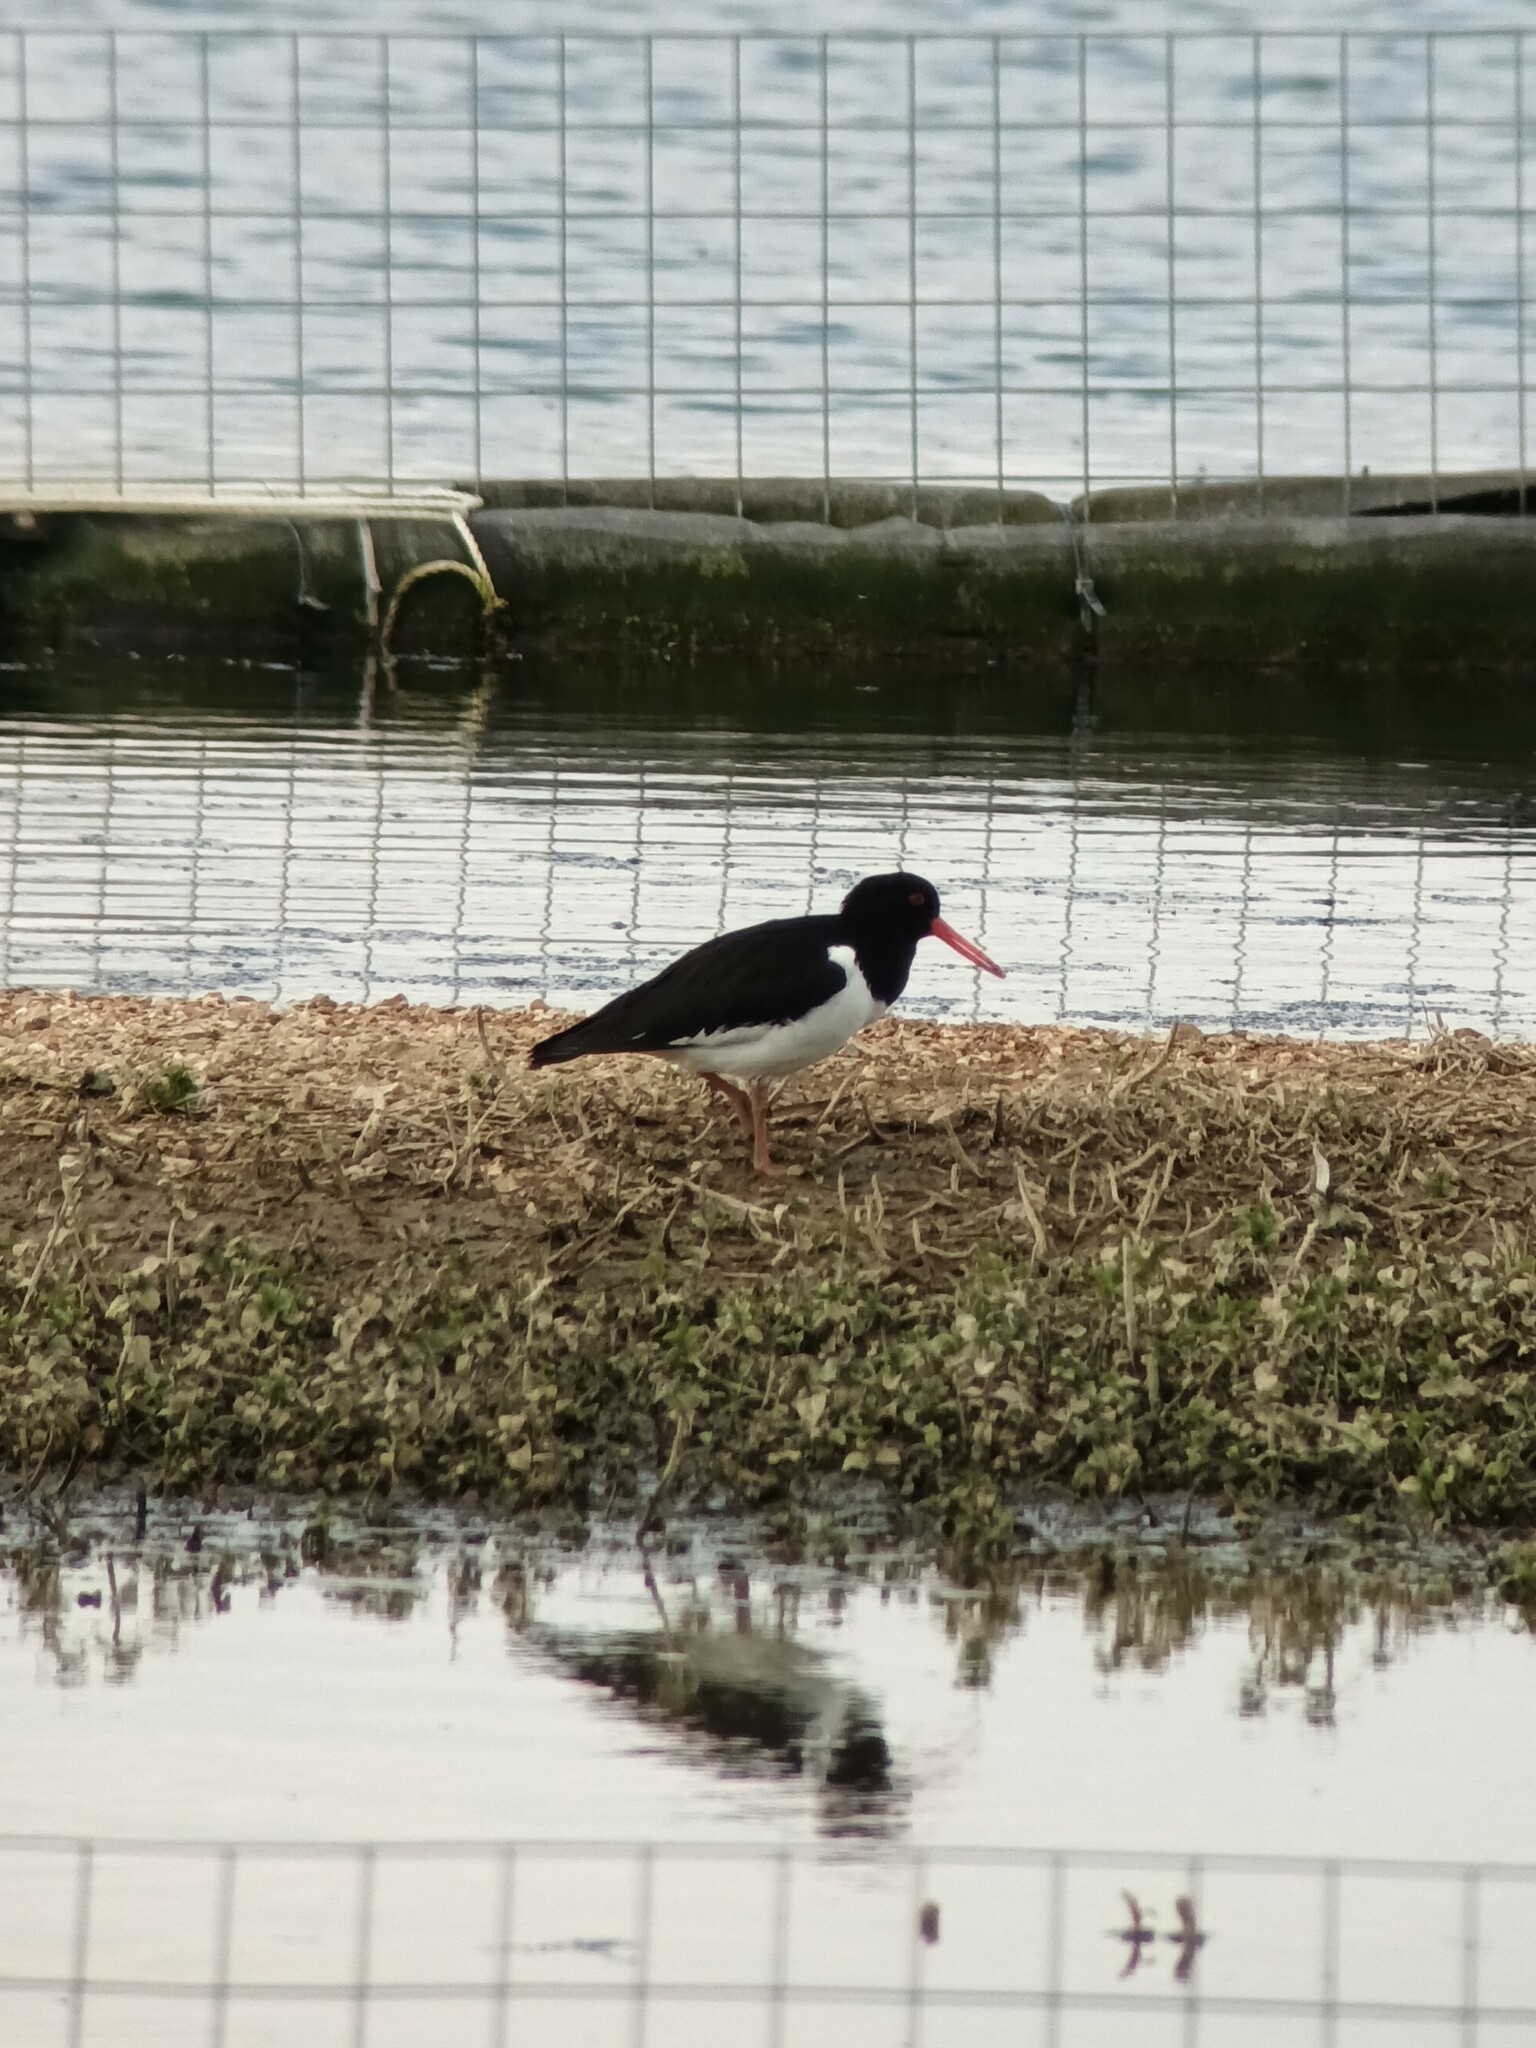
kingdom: Animalia
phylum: Chordata
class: Aves
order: Charadriiformes
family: Haematopodidae
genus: Haematopus
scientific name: Haematopus ostralegus
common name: Eurasian oystercatcher
